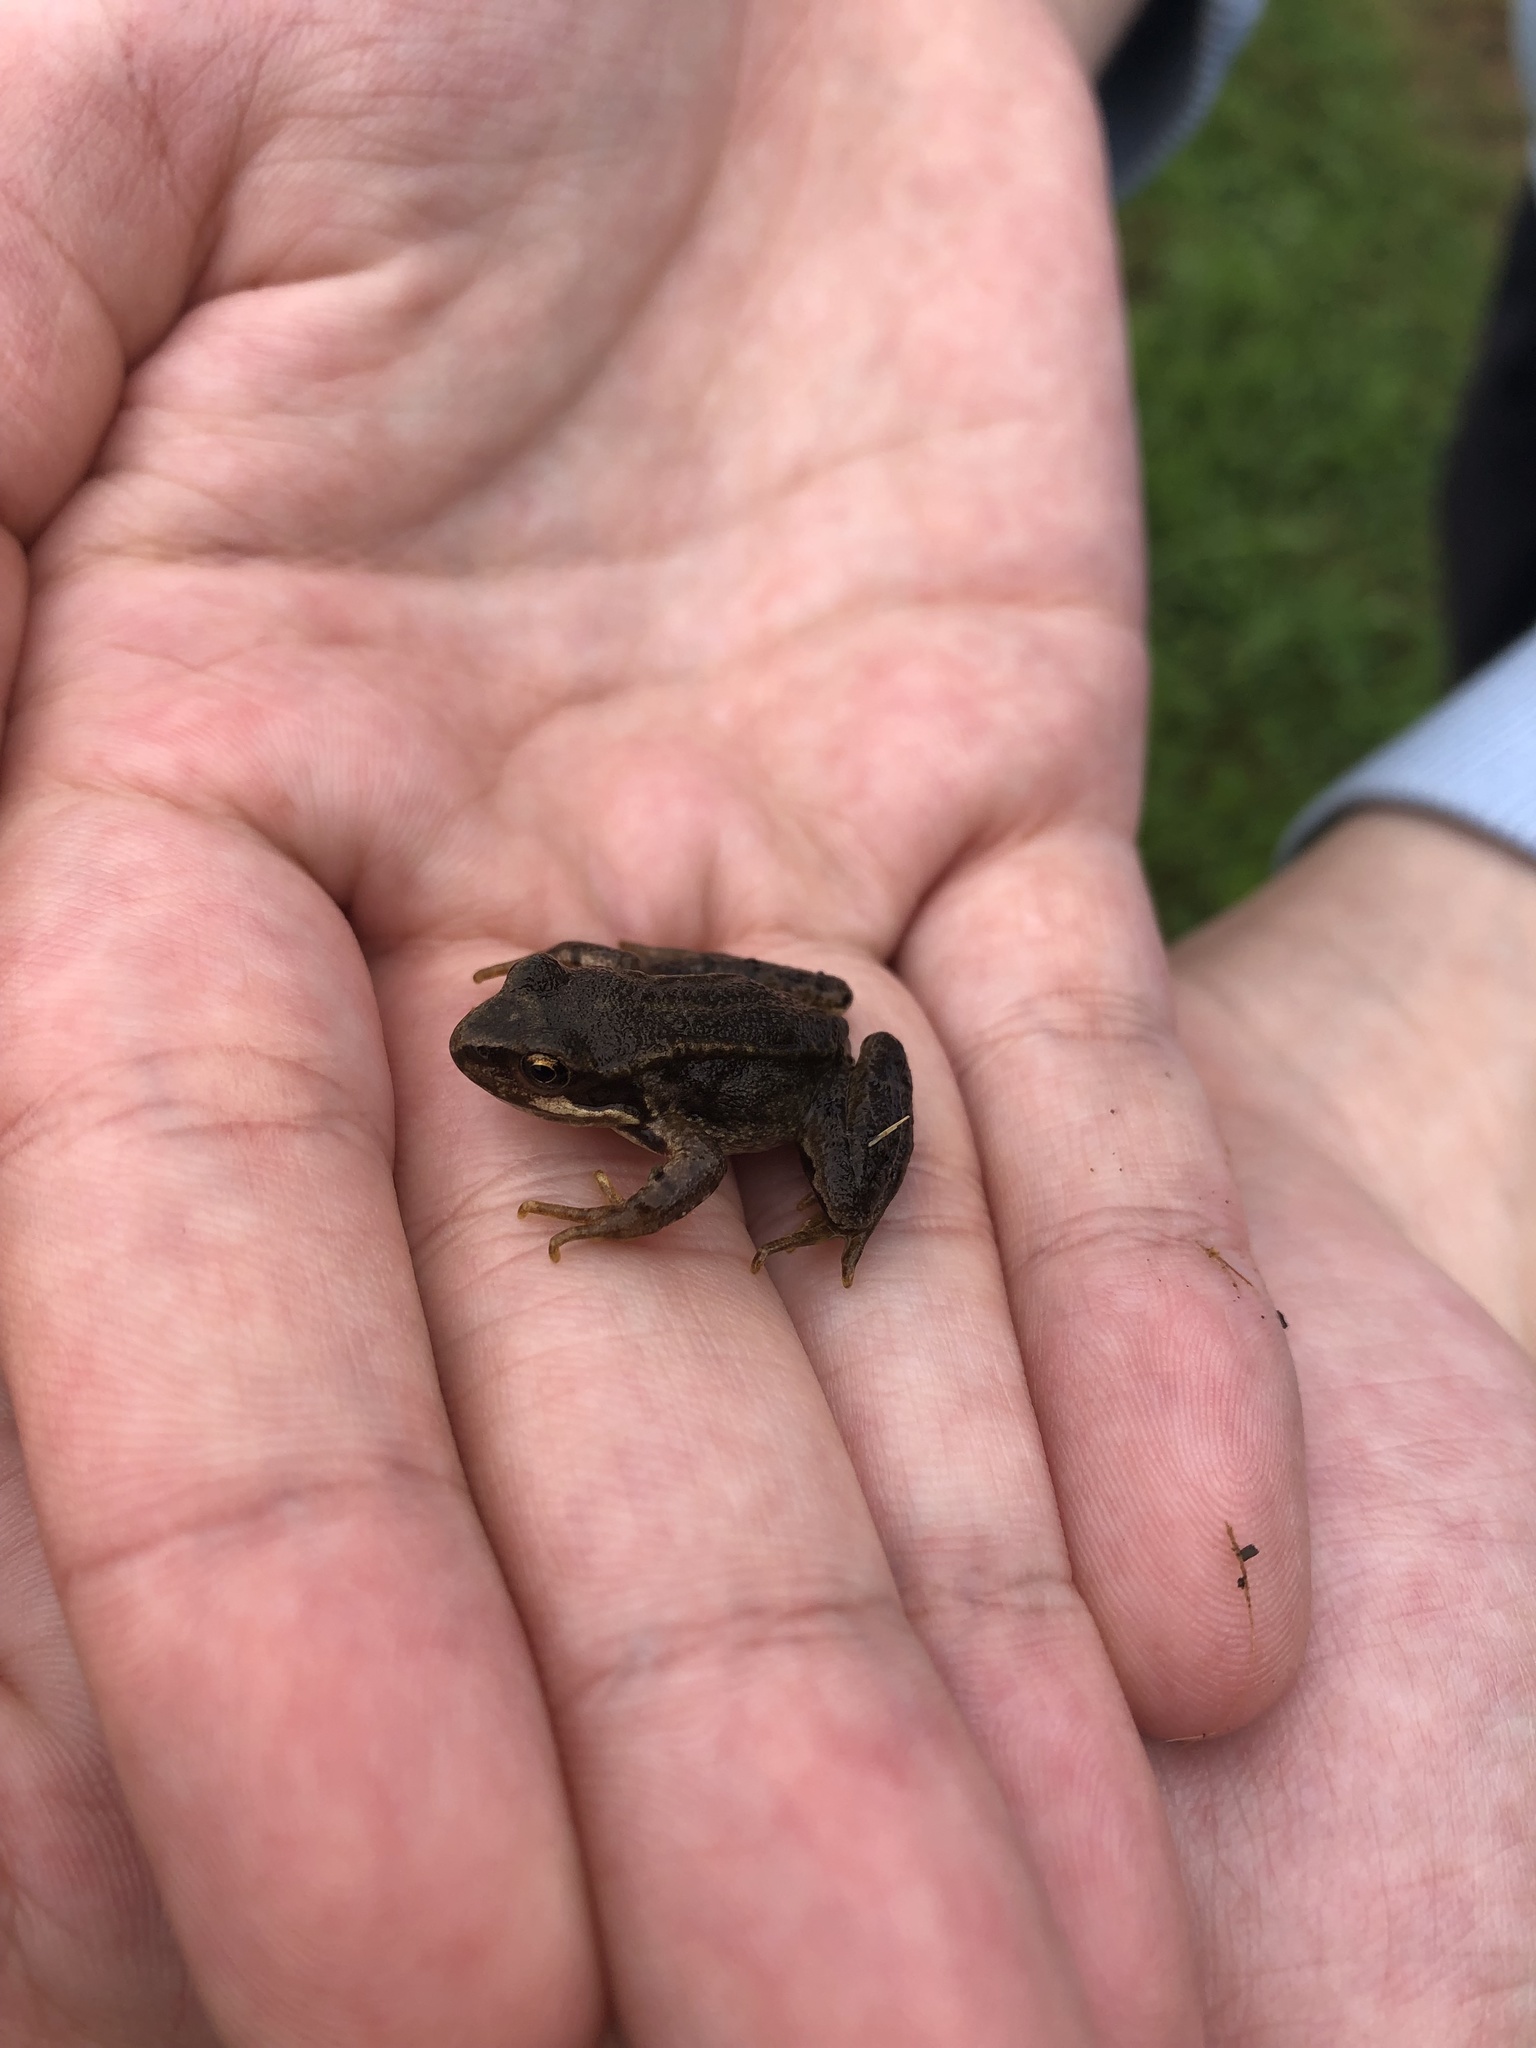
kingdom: Animalia
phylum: Chordata
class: Amphibia
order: Anura
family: Ranidae
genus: Rana
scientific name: Rana temporaria
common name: Common frog
